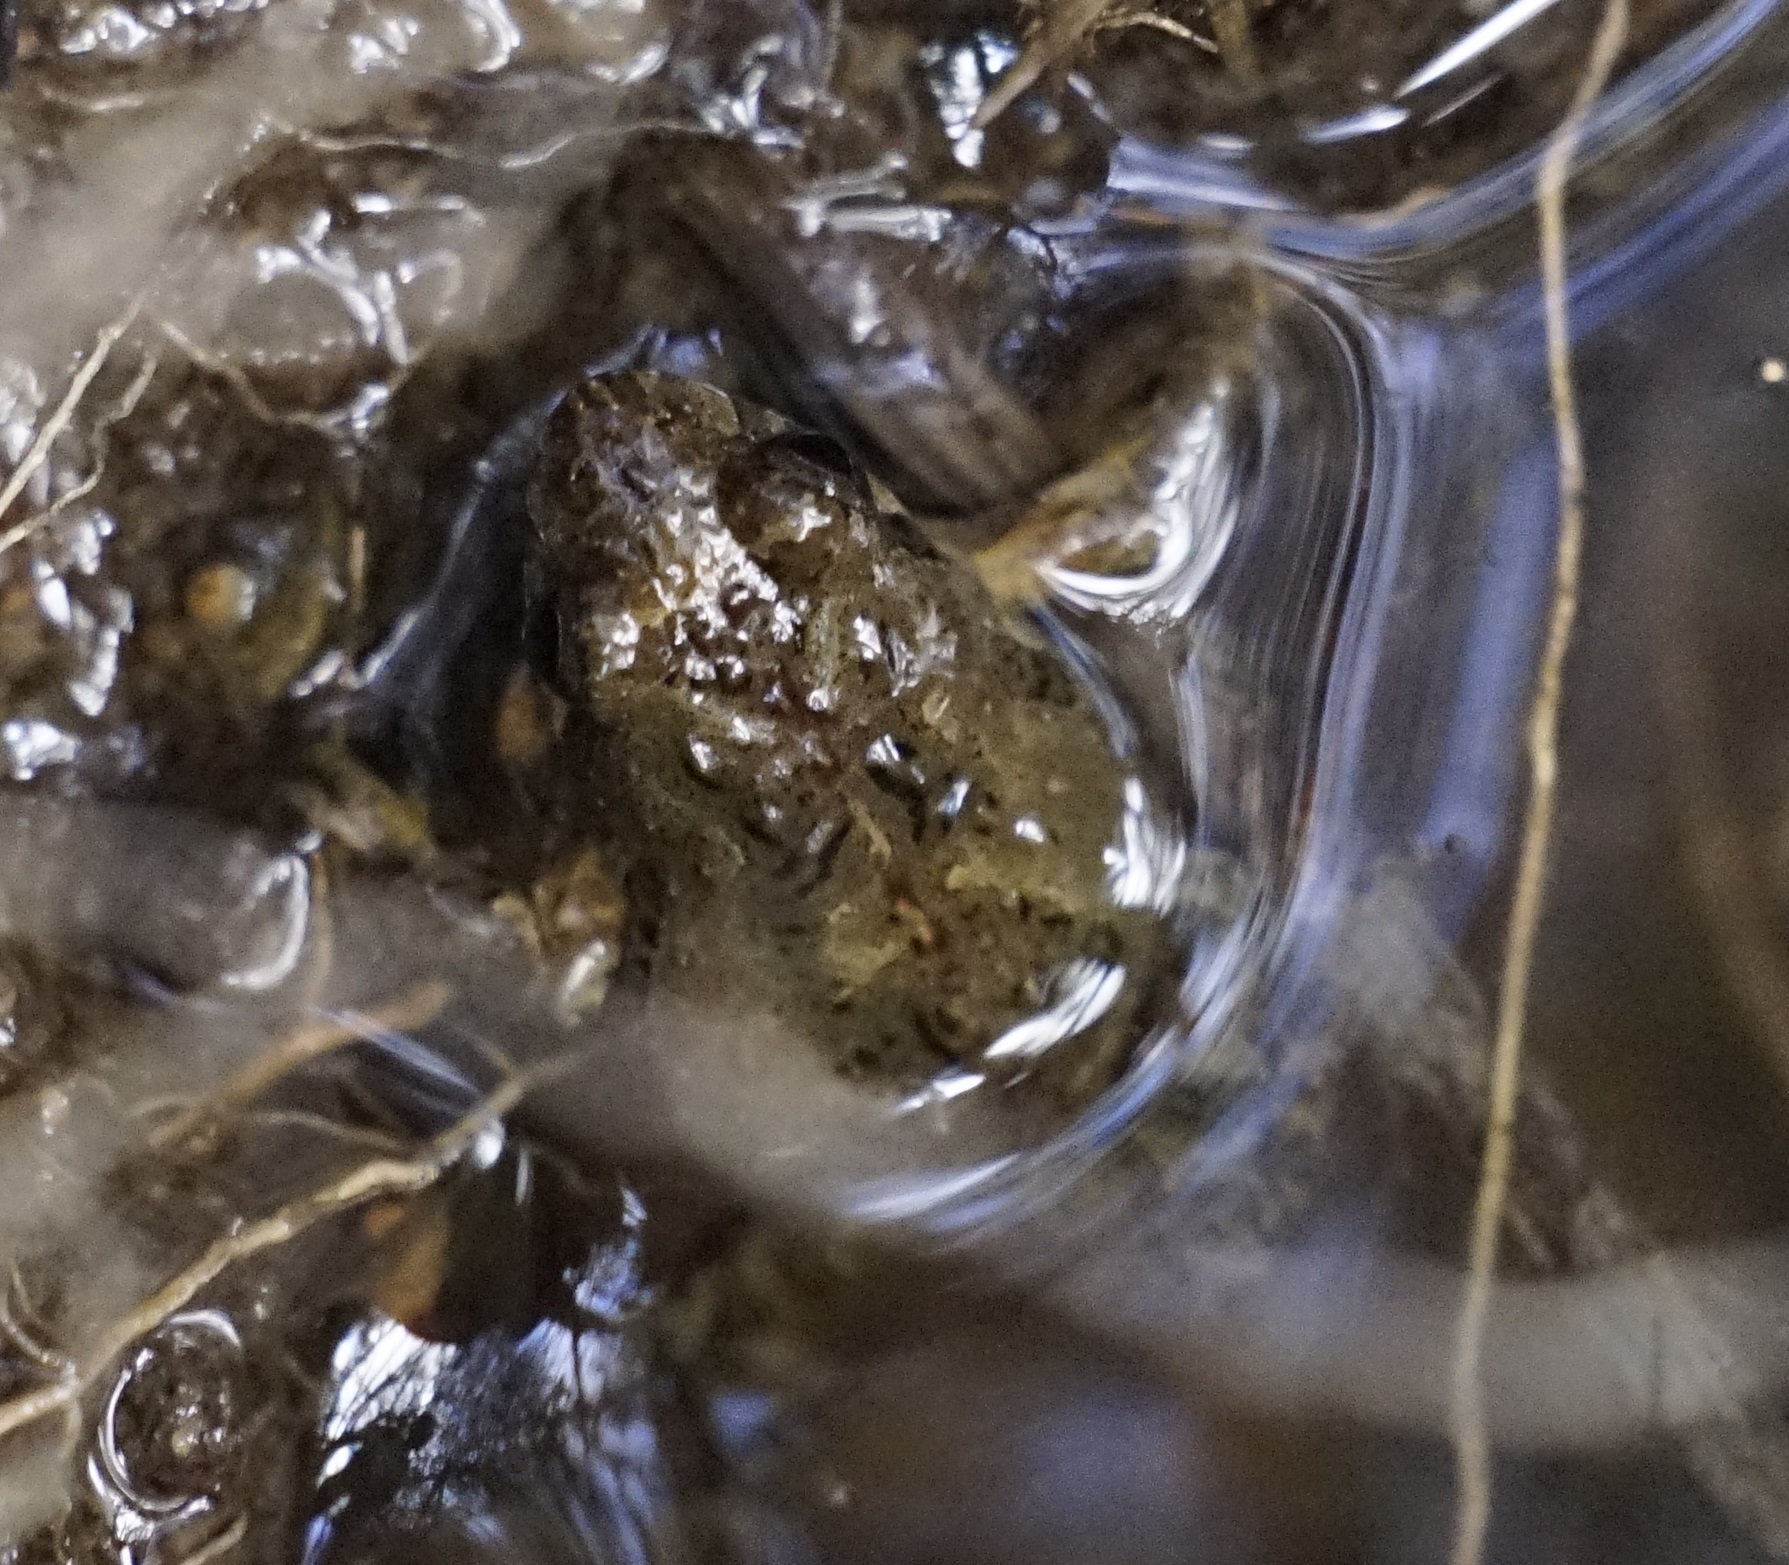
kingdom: Animalia
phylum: Chordata
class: Amphibia
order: Anura
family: Myobatrachidae
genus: Crinia
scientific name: Crinia signifera
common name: Brown froglet
